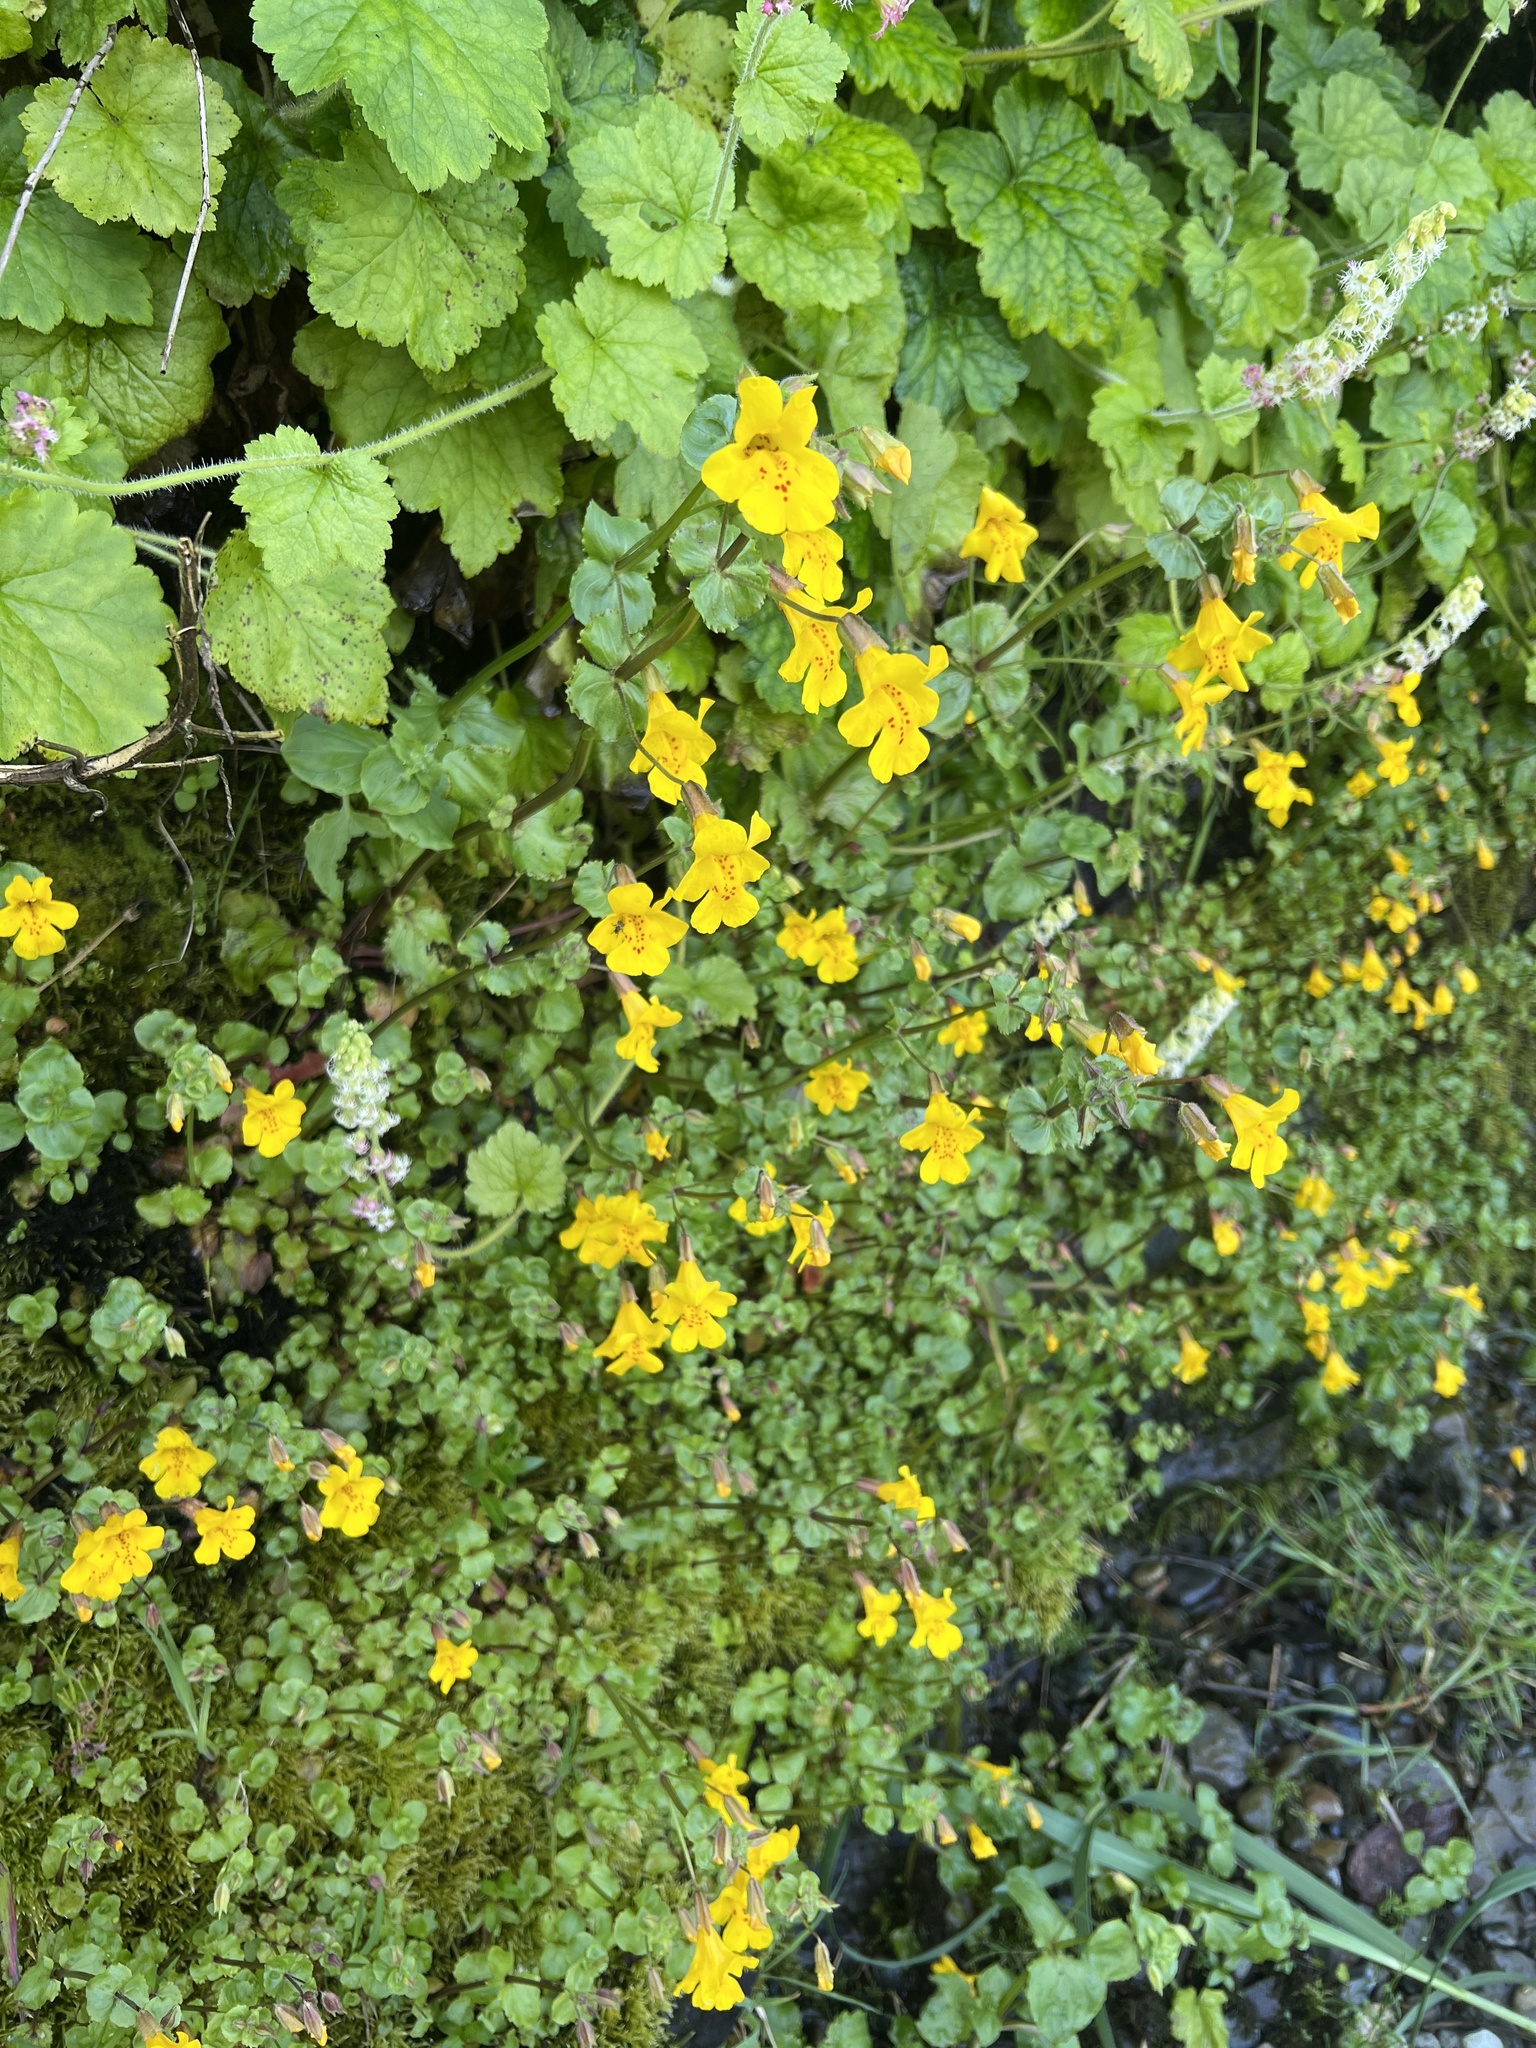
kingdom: Plantae
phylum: Tracheophyta
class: Magnoliopsida
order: Lamiales
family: Phrymaceae
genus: Erythranthe
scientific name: Erythranthe guttata
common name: Monkeyflower
